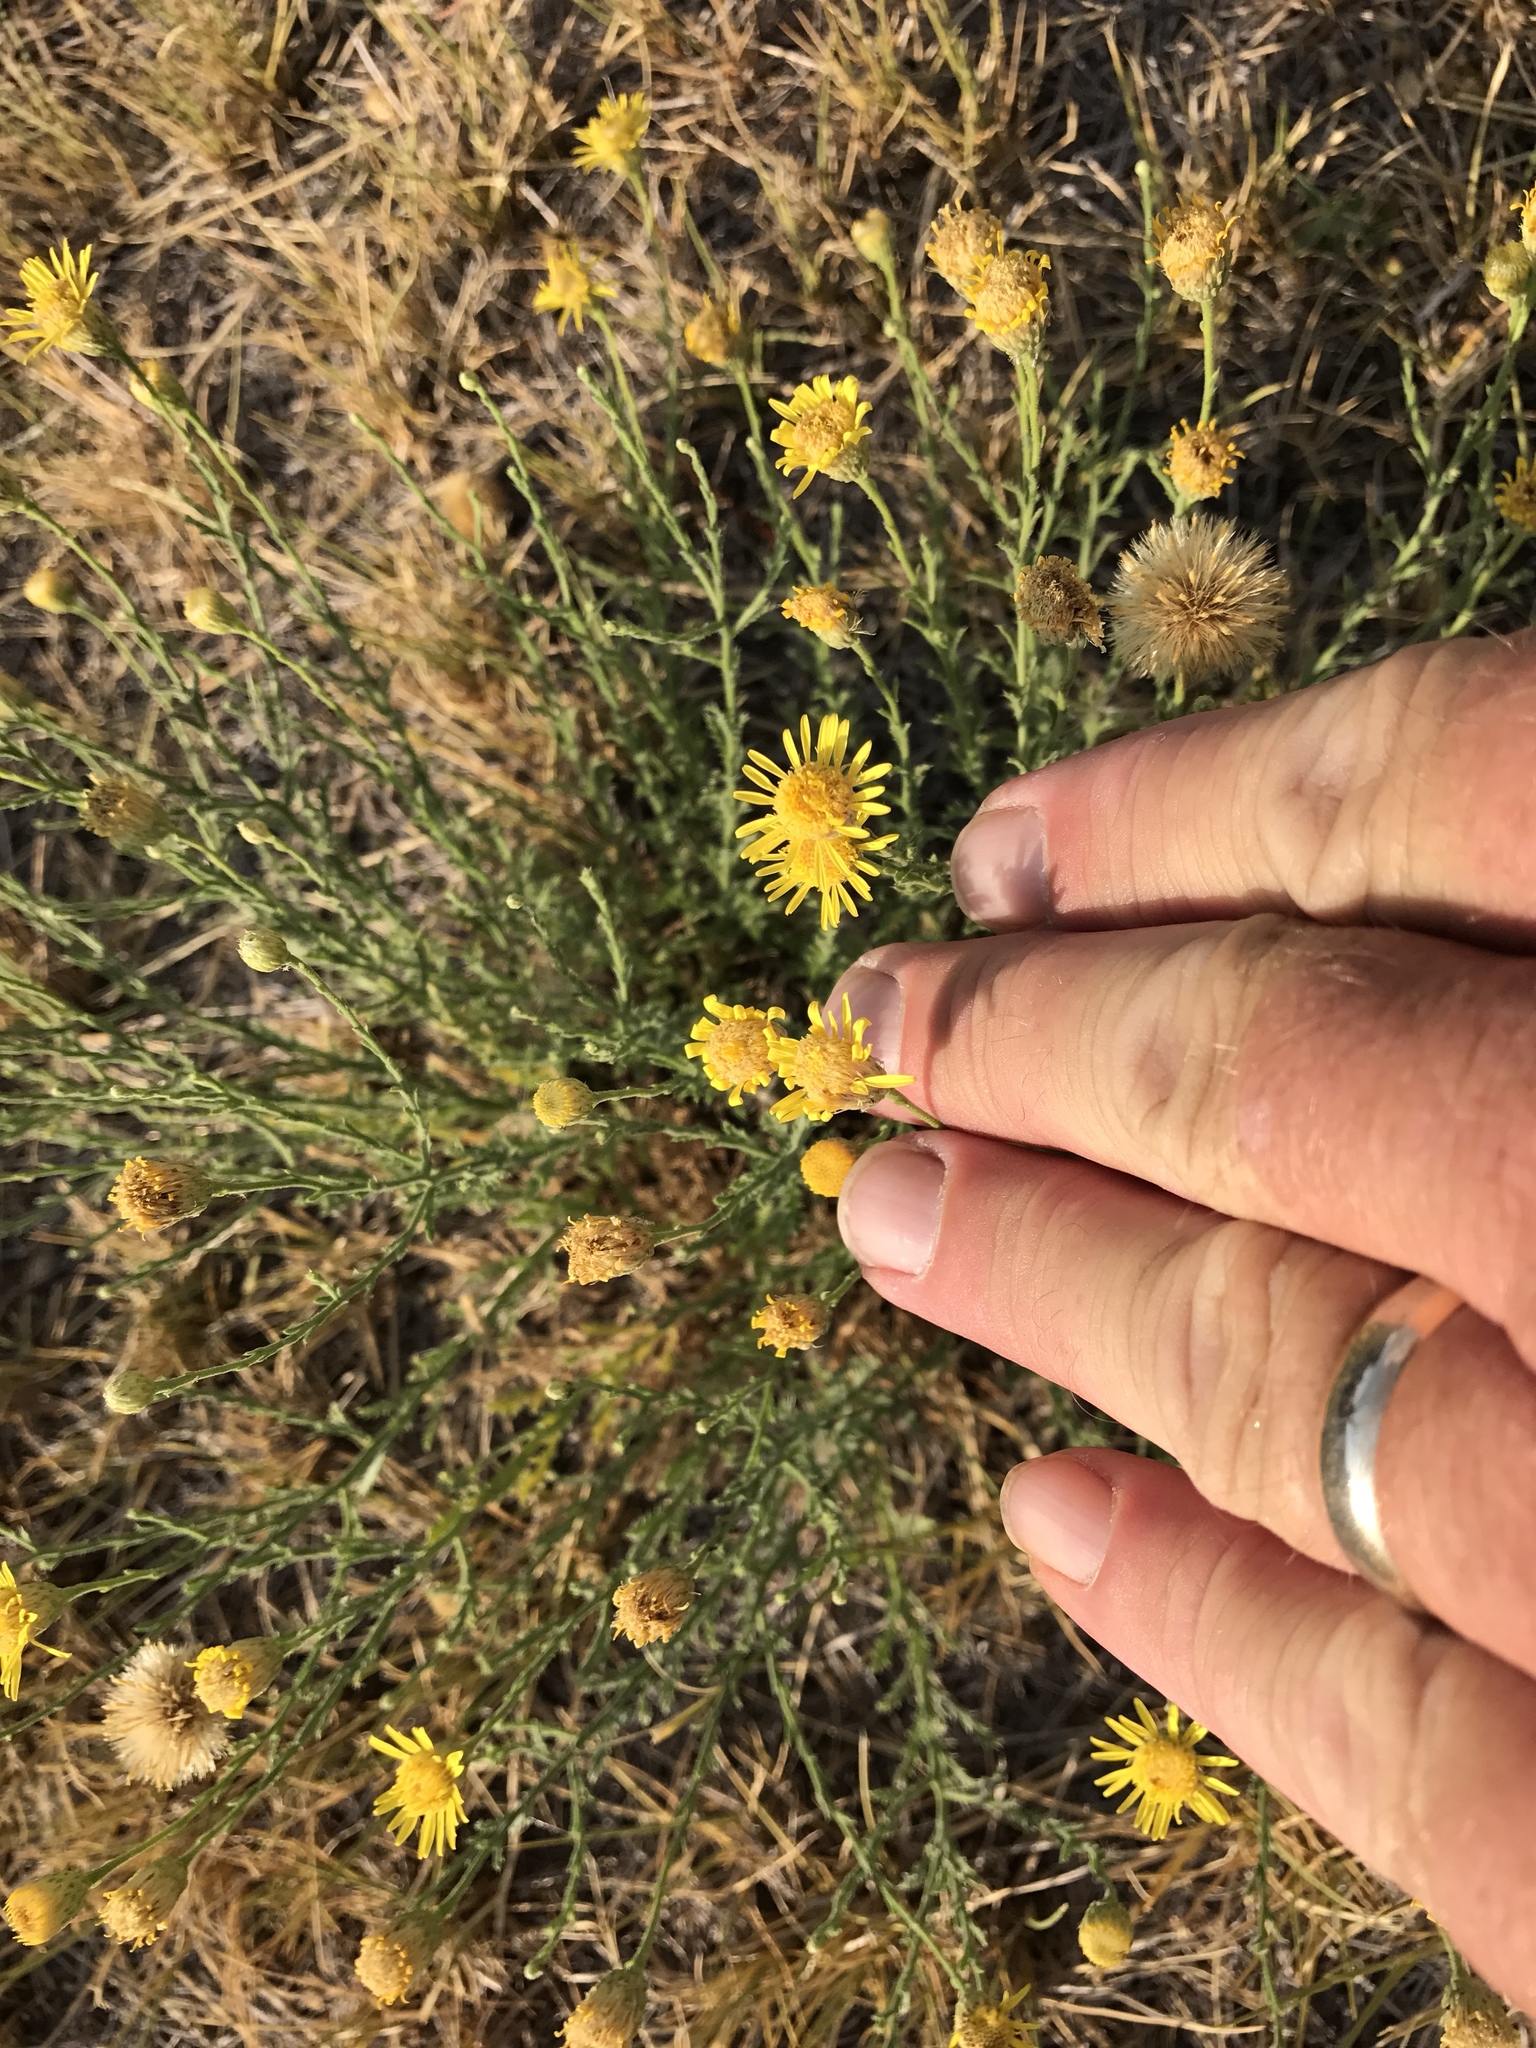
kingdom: Plantae
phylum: Tracheophyta
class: Magnoliopsida
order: Asterales
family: Asteraceae
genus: Xanthisma
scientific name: Xanthisma spinulosum
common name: Spiny goldenweed
